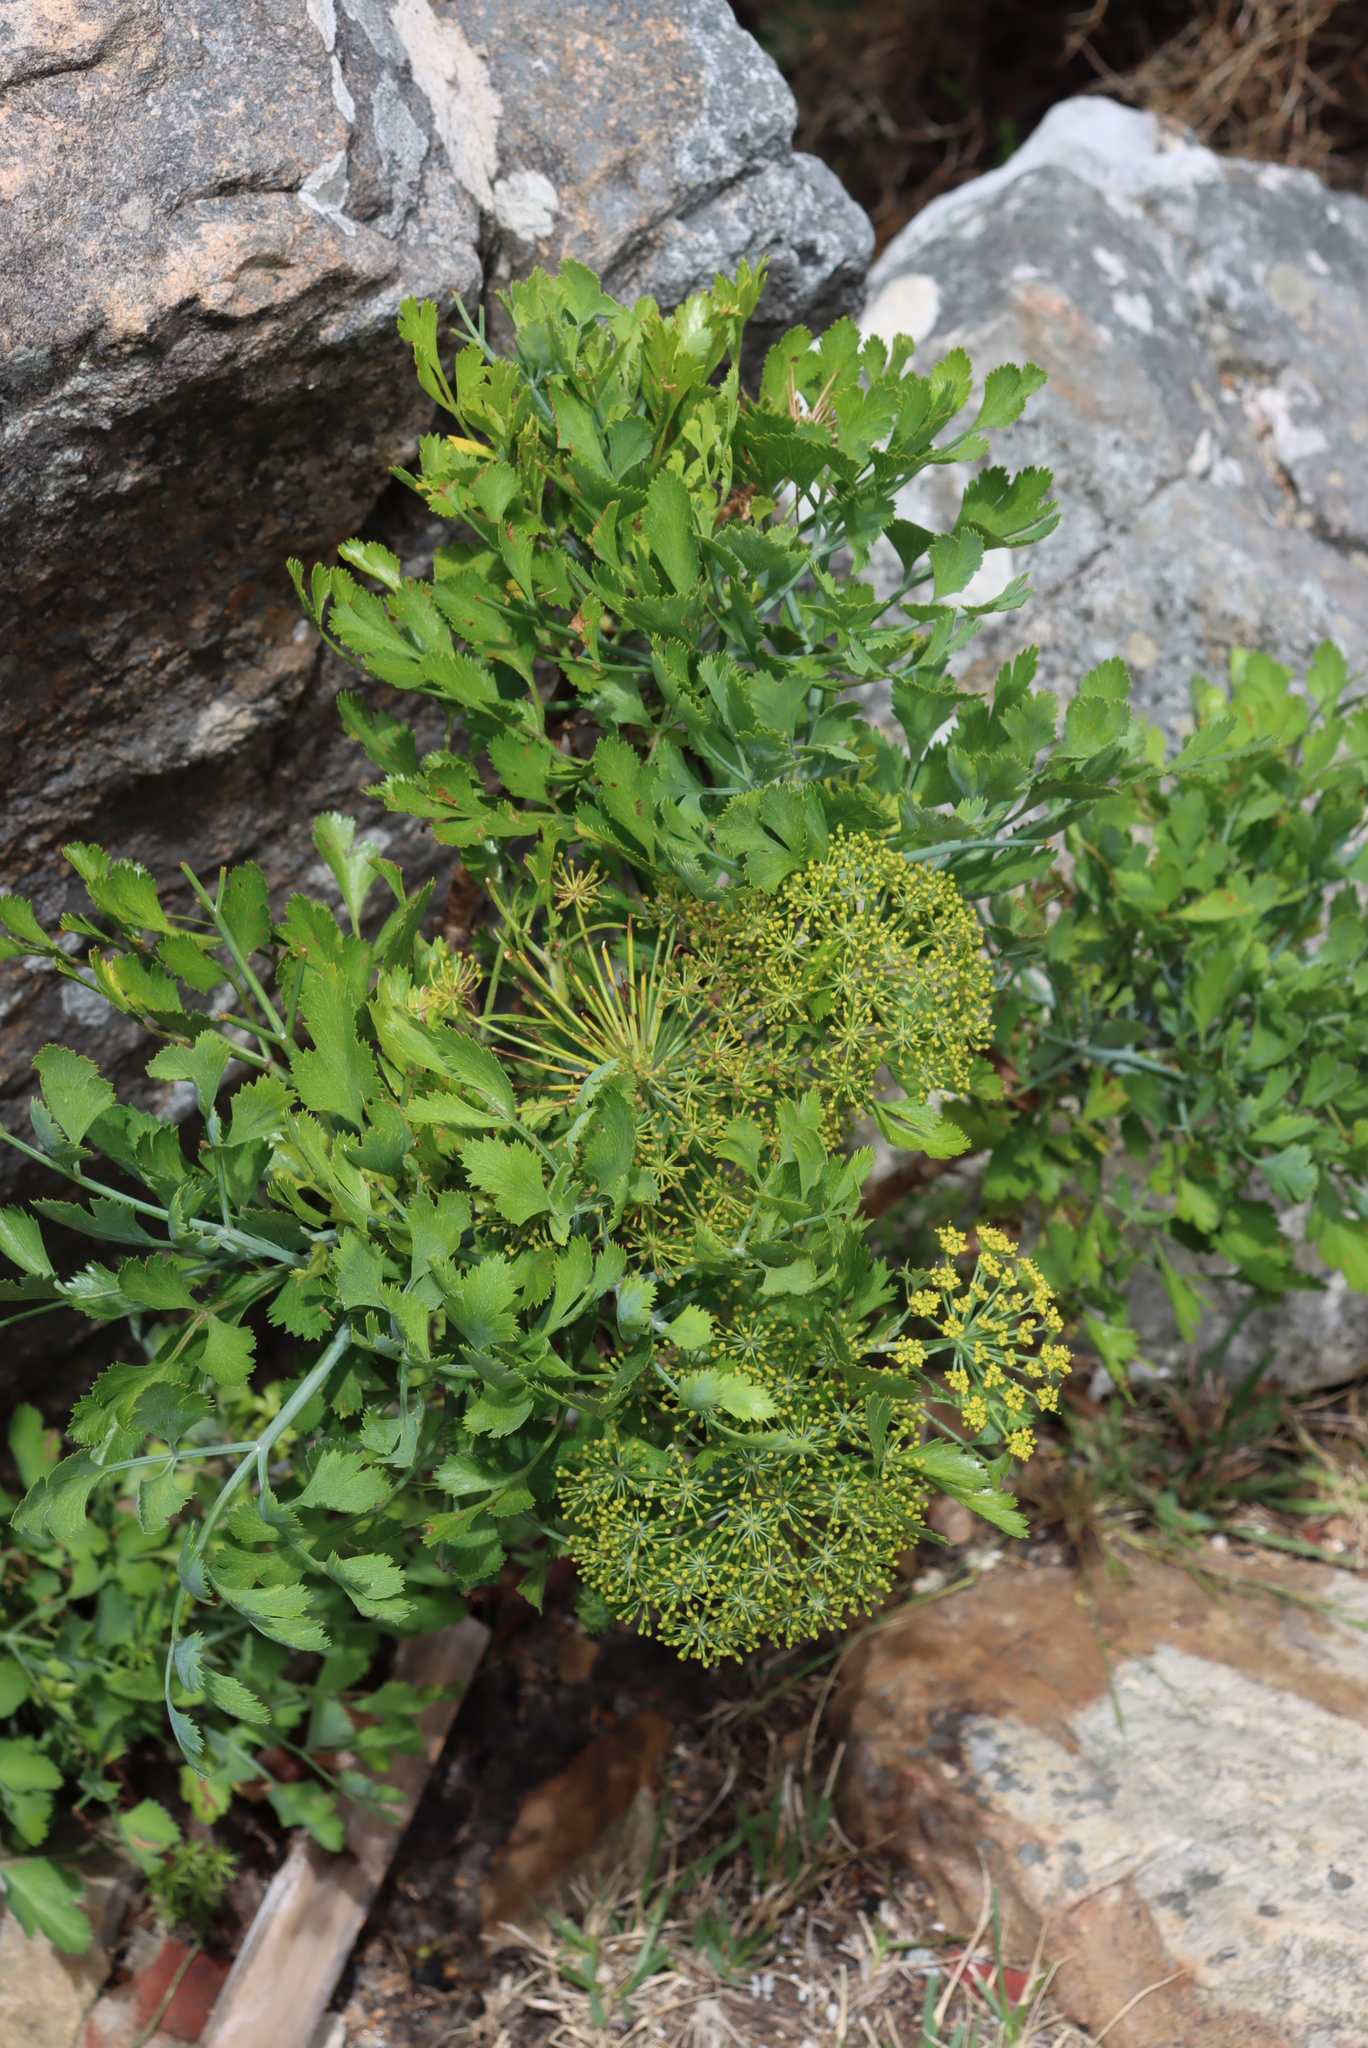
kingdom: Plantae
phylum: Tracheophyta
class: Magnoliopsida
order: Apiales
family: Apiaceae
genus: Notobubon
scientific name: Notobubon galbanum
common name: Blisterbush
